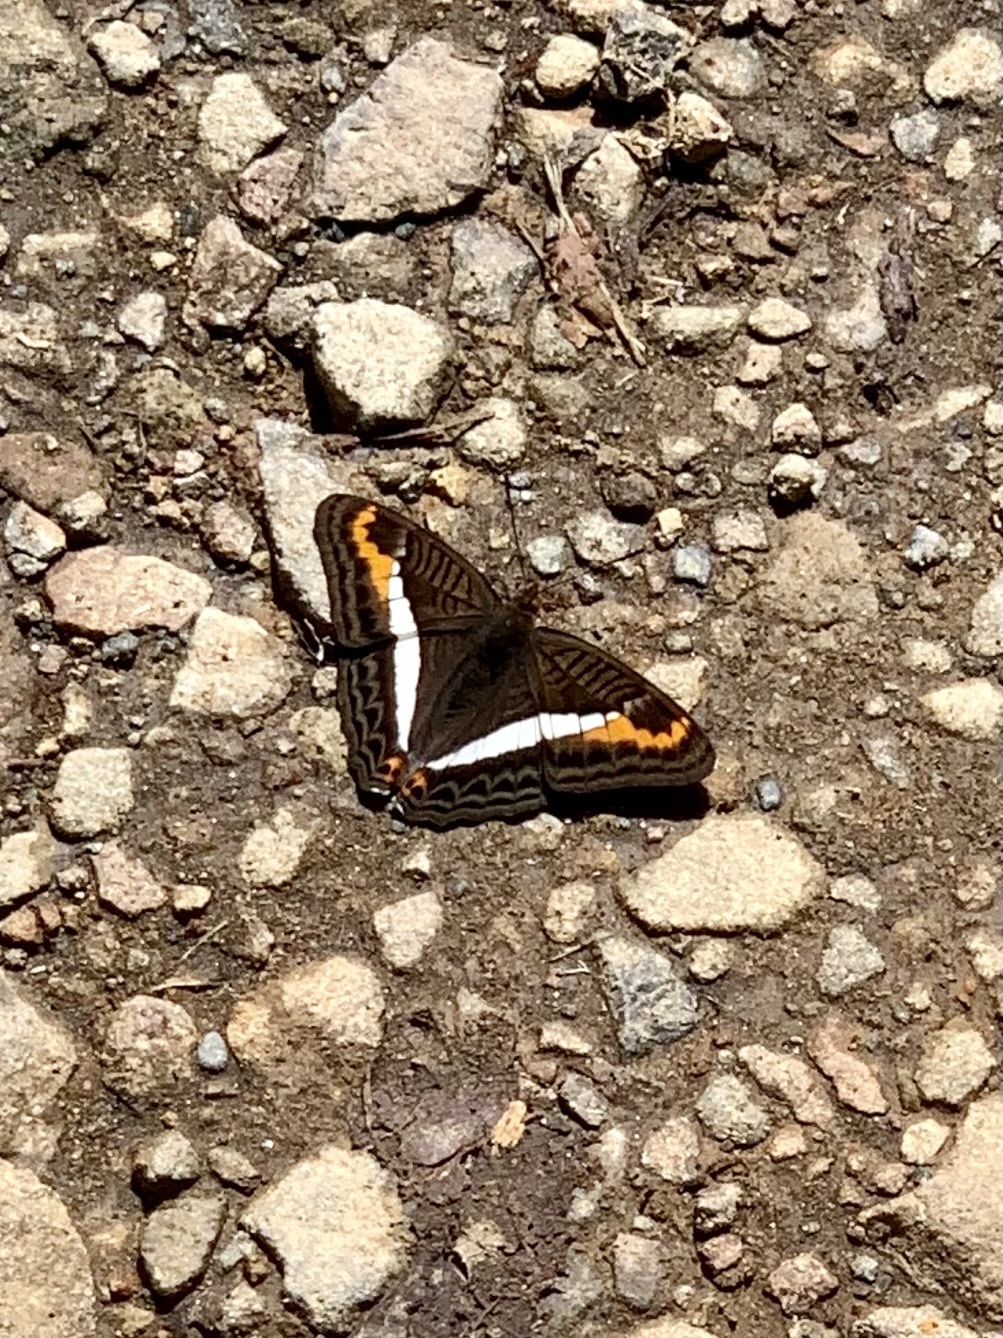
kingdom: Animalia
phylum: Arthropoda
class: Insecta
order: Lepidoptera
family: Nymphalidae
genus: Limenitis
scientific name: Limenitis corcyra
